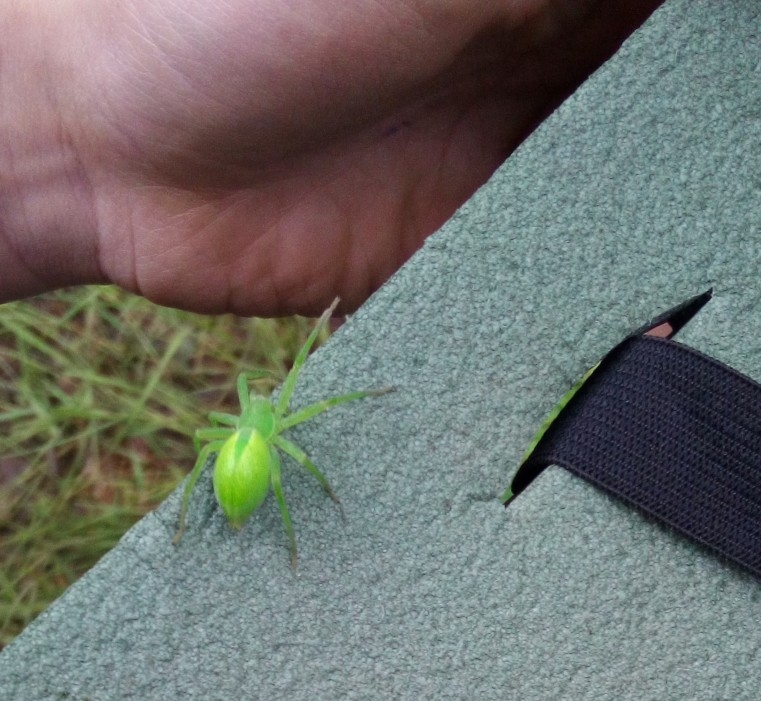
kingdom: Animalia
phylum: Arthropoda
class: Arachnida
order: Araneae
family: Sparassidae
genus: Micrommata
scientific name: Micrommata virescens
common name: Green spider
